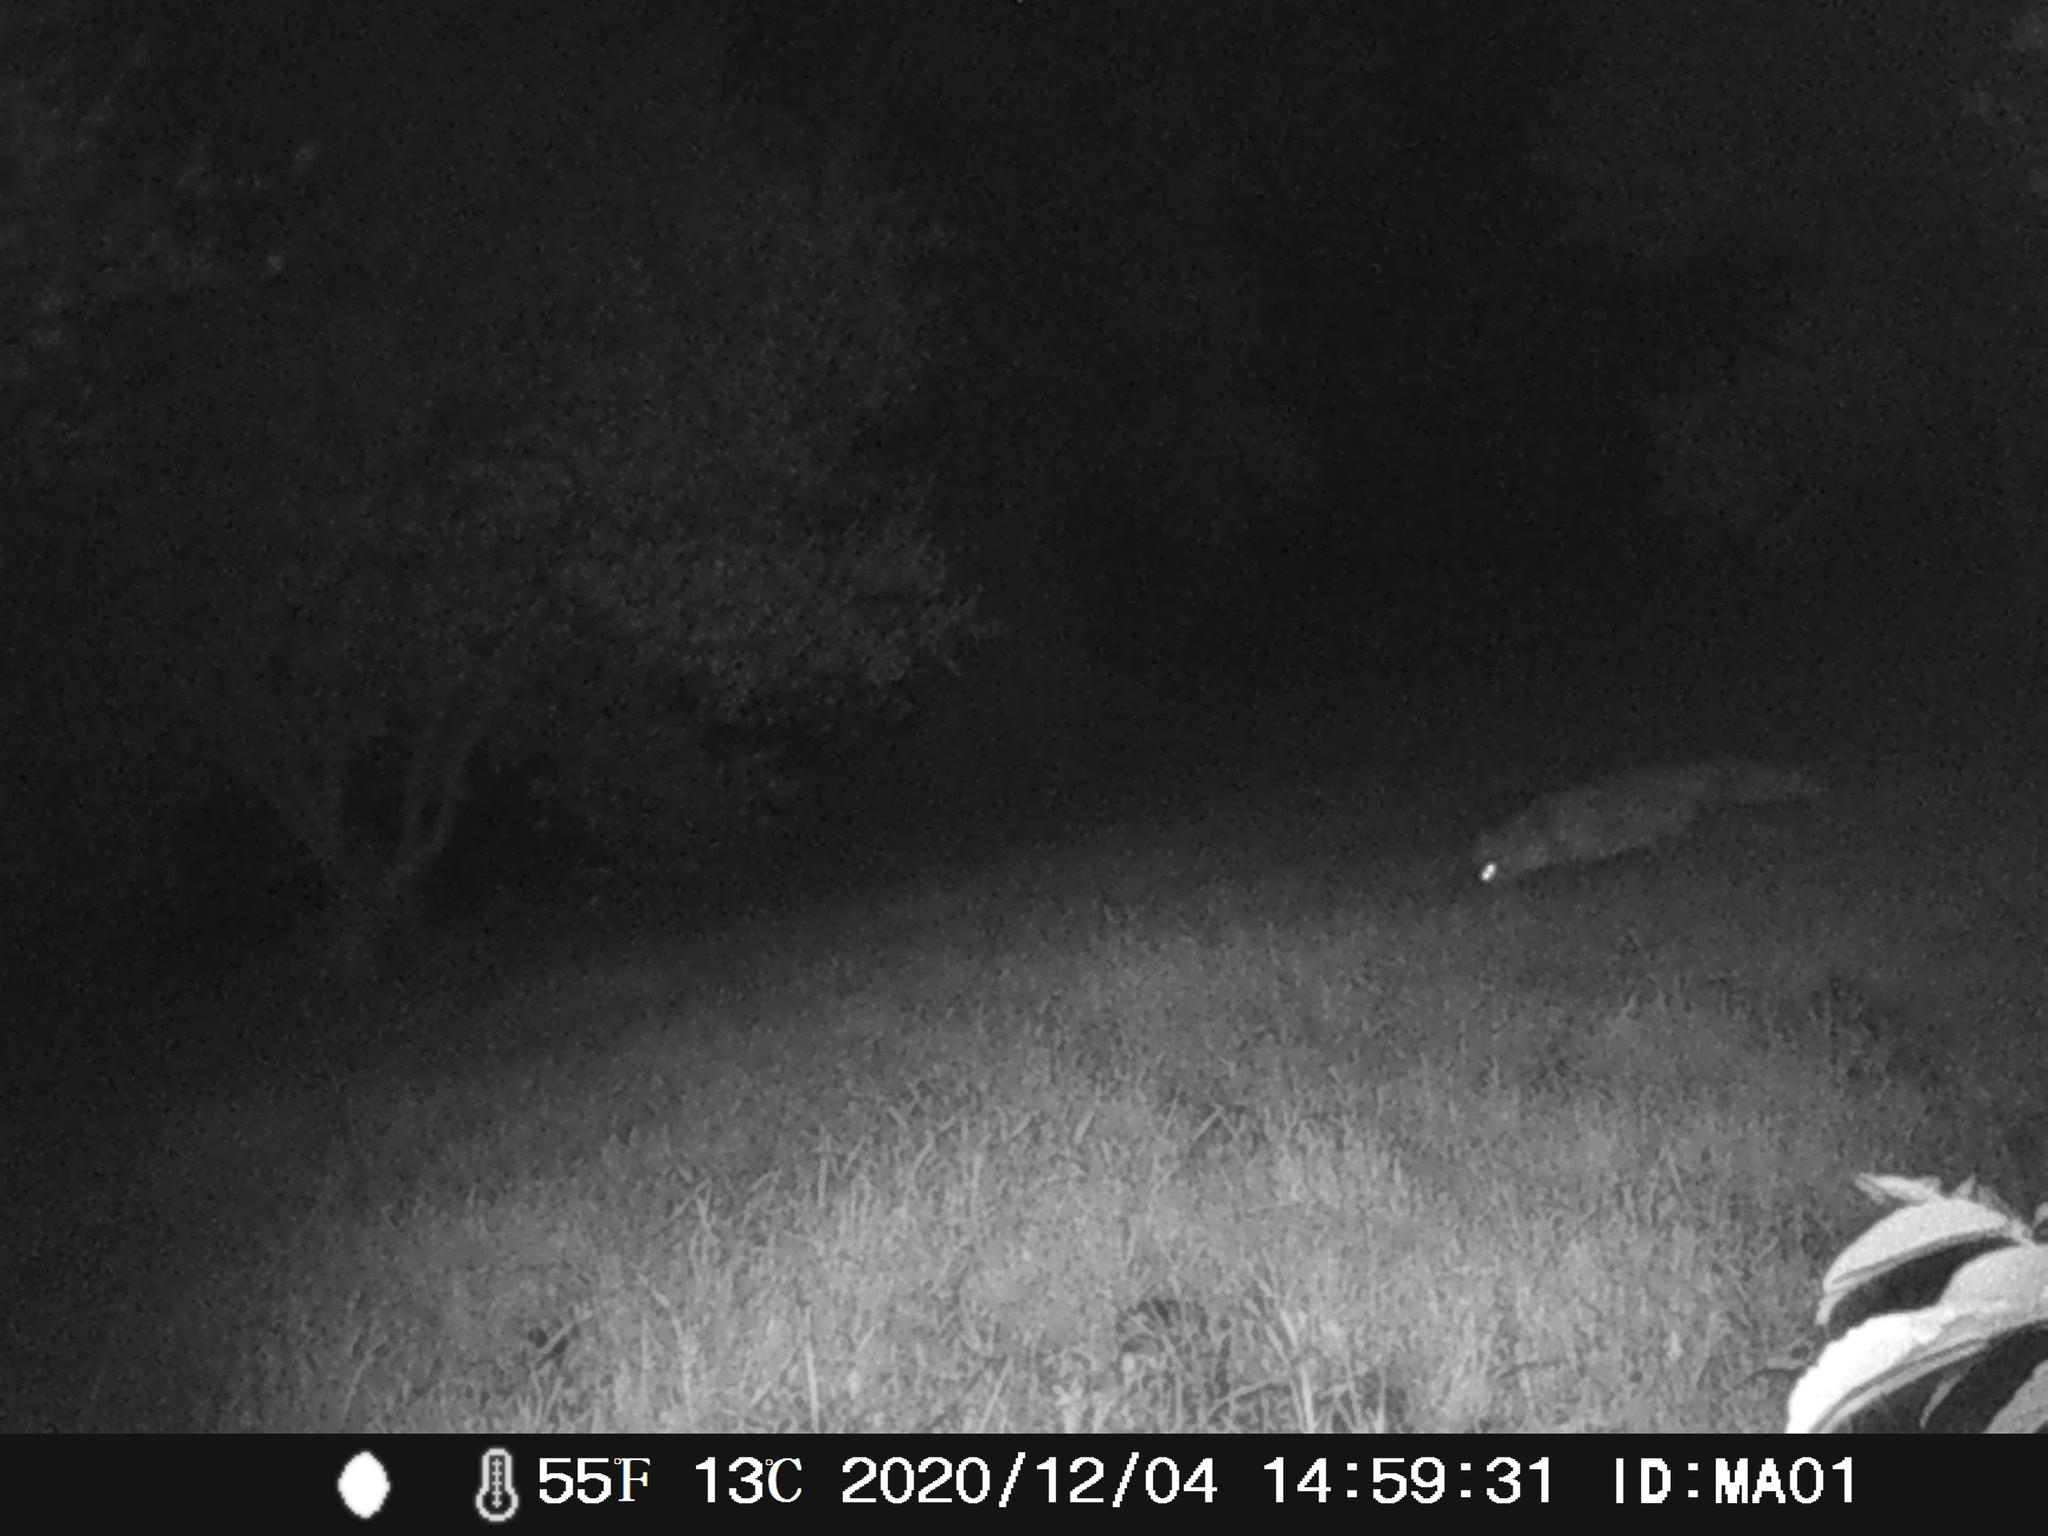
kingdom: Animalia
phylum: Chordata
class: Mammalia
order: Carnivora
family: Canidae
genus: Vulpes
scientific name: Vulpes vulpes
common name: Red fox
